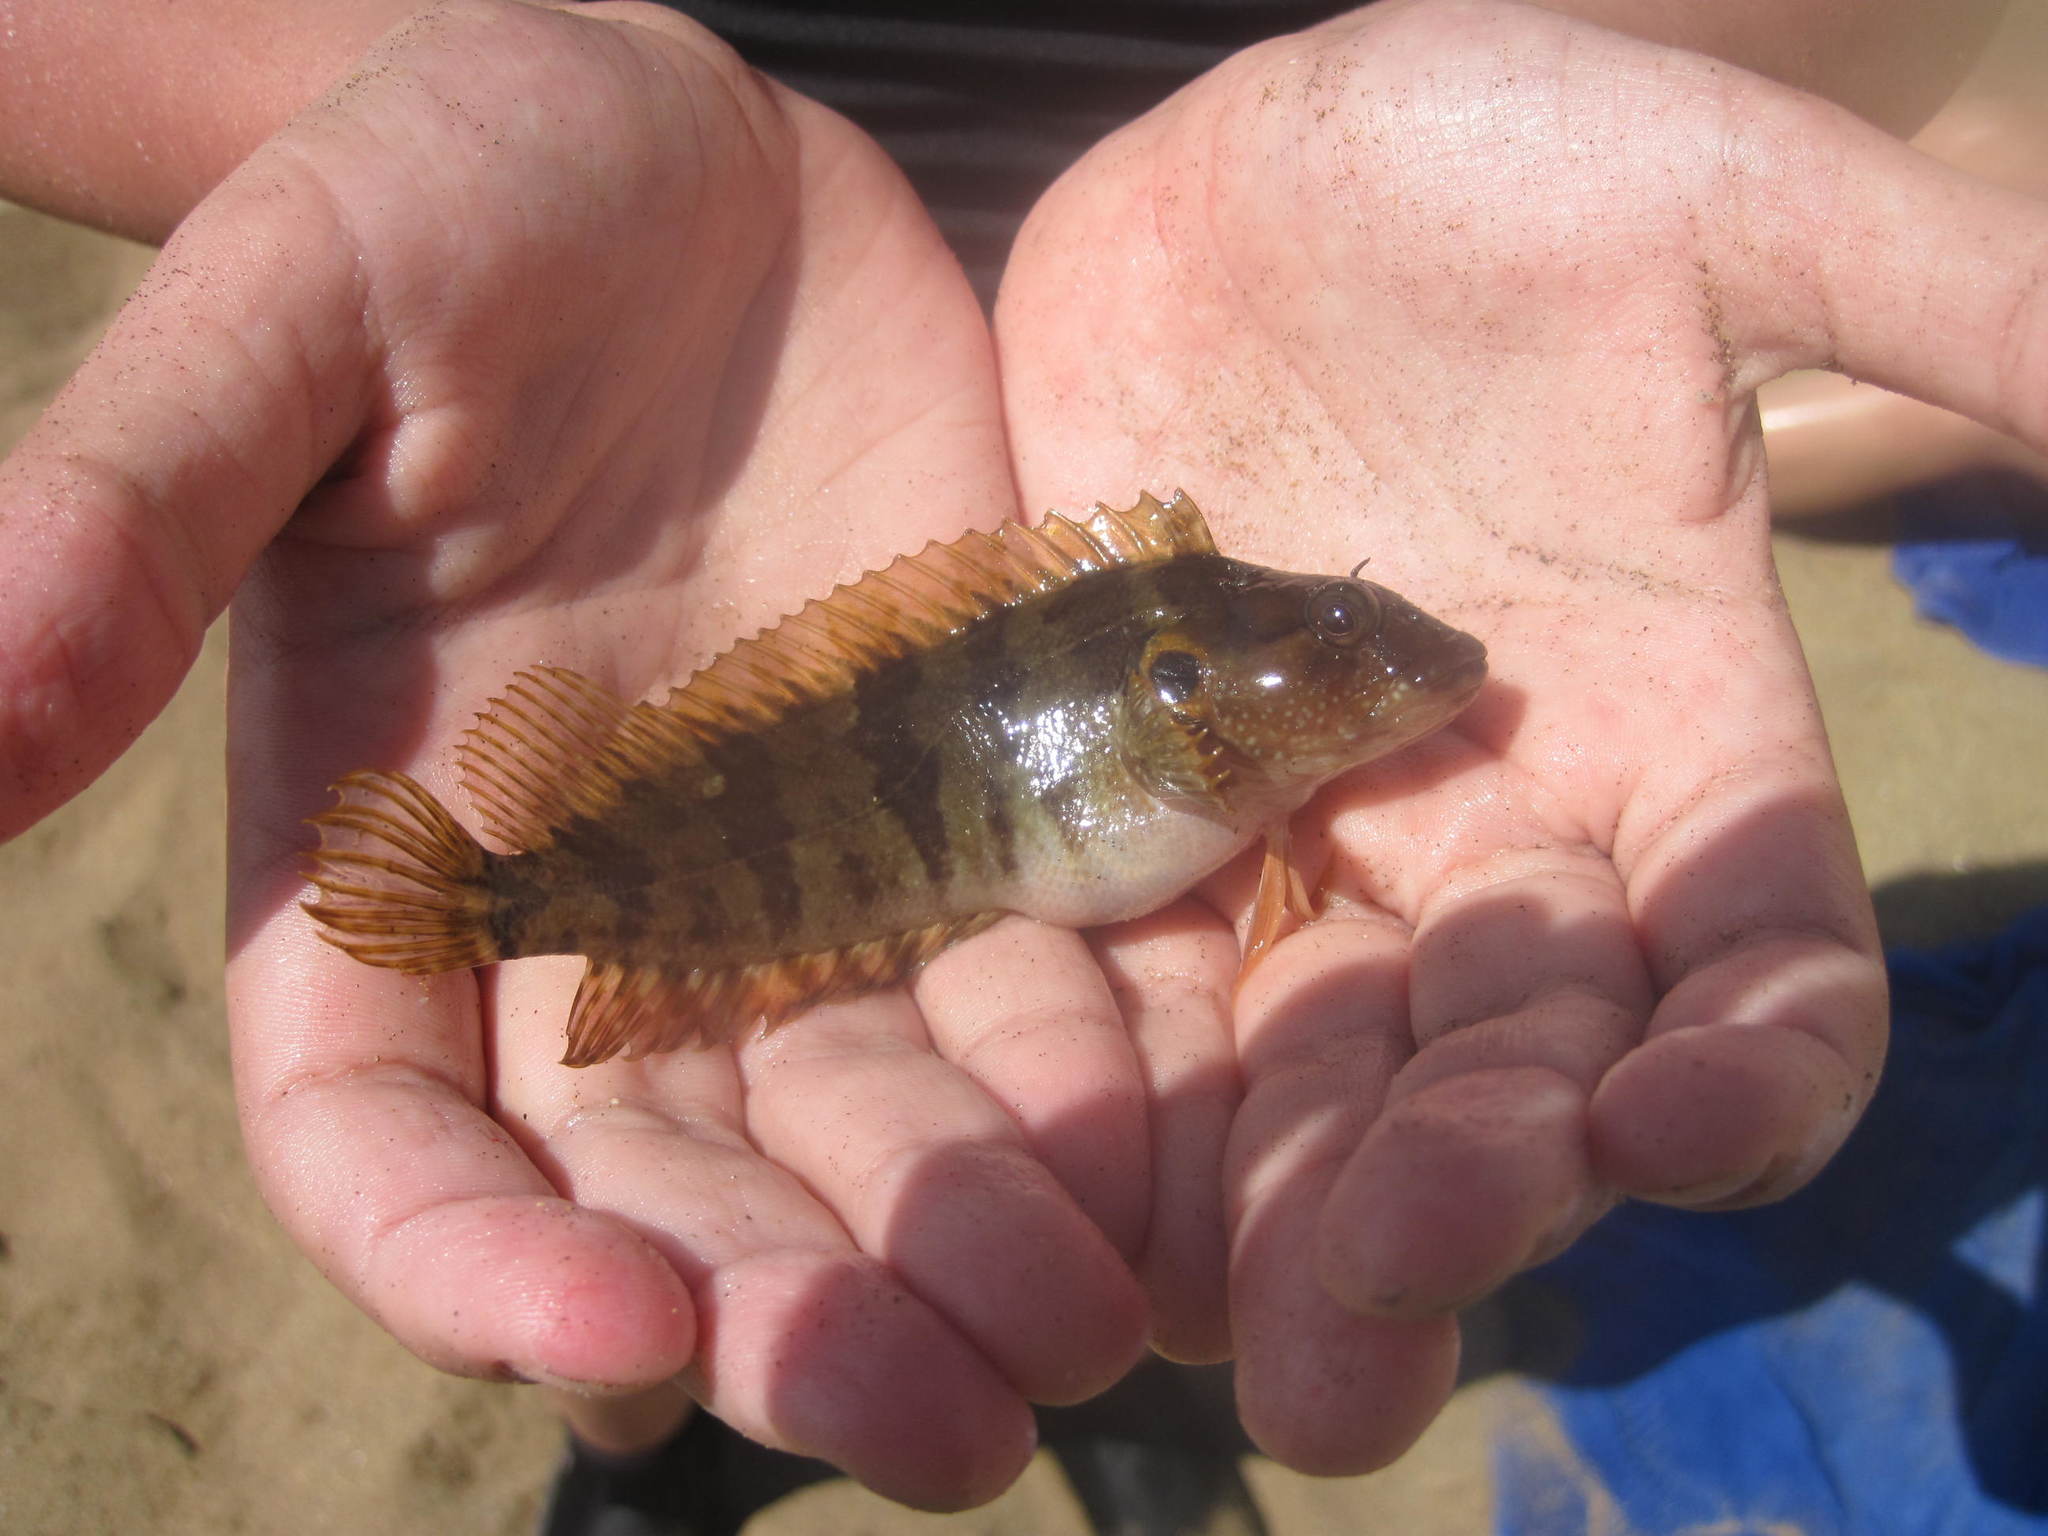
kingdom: Animalia
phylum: Chordata
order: Perciformes
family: Labrisomidae
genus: Labrisomus
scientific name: Labrisomus nuchipinnis
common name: Hairy blenny
